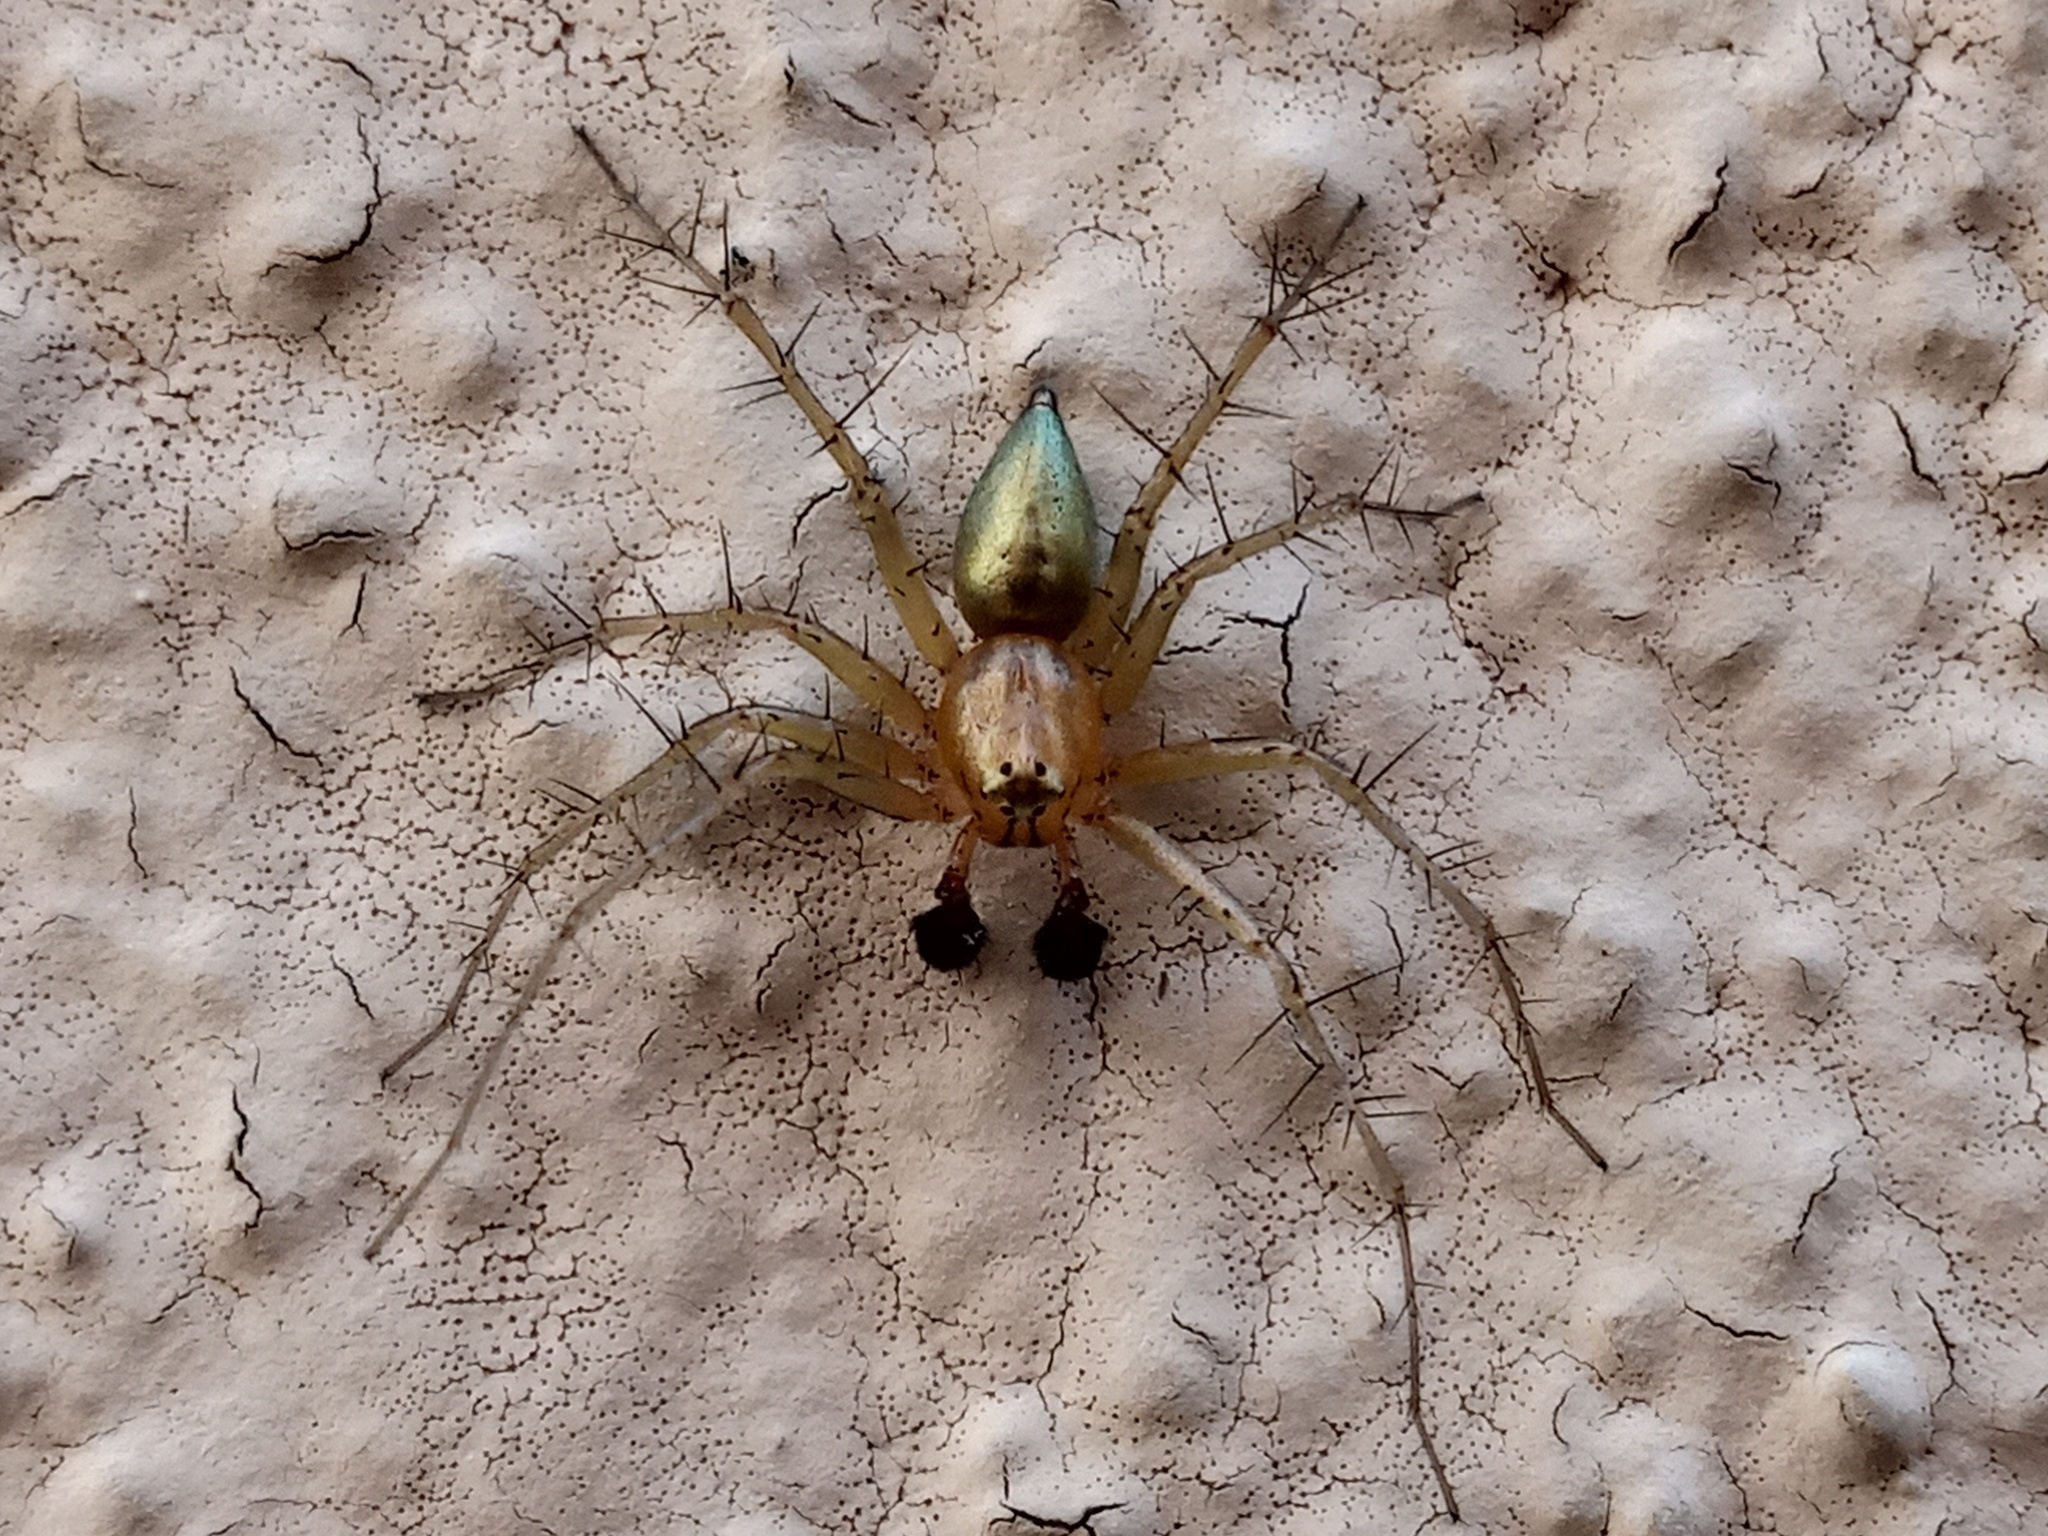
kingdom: Animalia
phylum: Arthropoda
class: Arachnida
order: Araneae
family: Oxyopidae
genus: Oxyopes
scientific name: Oxyopes salticus
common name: Lynx spiders
